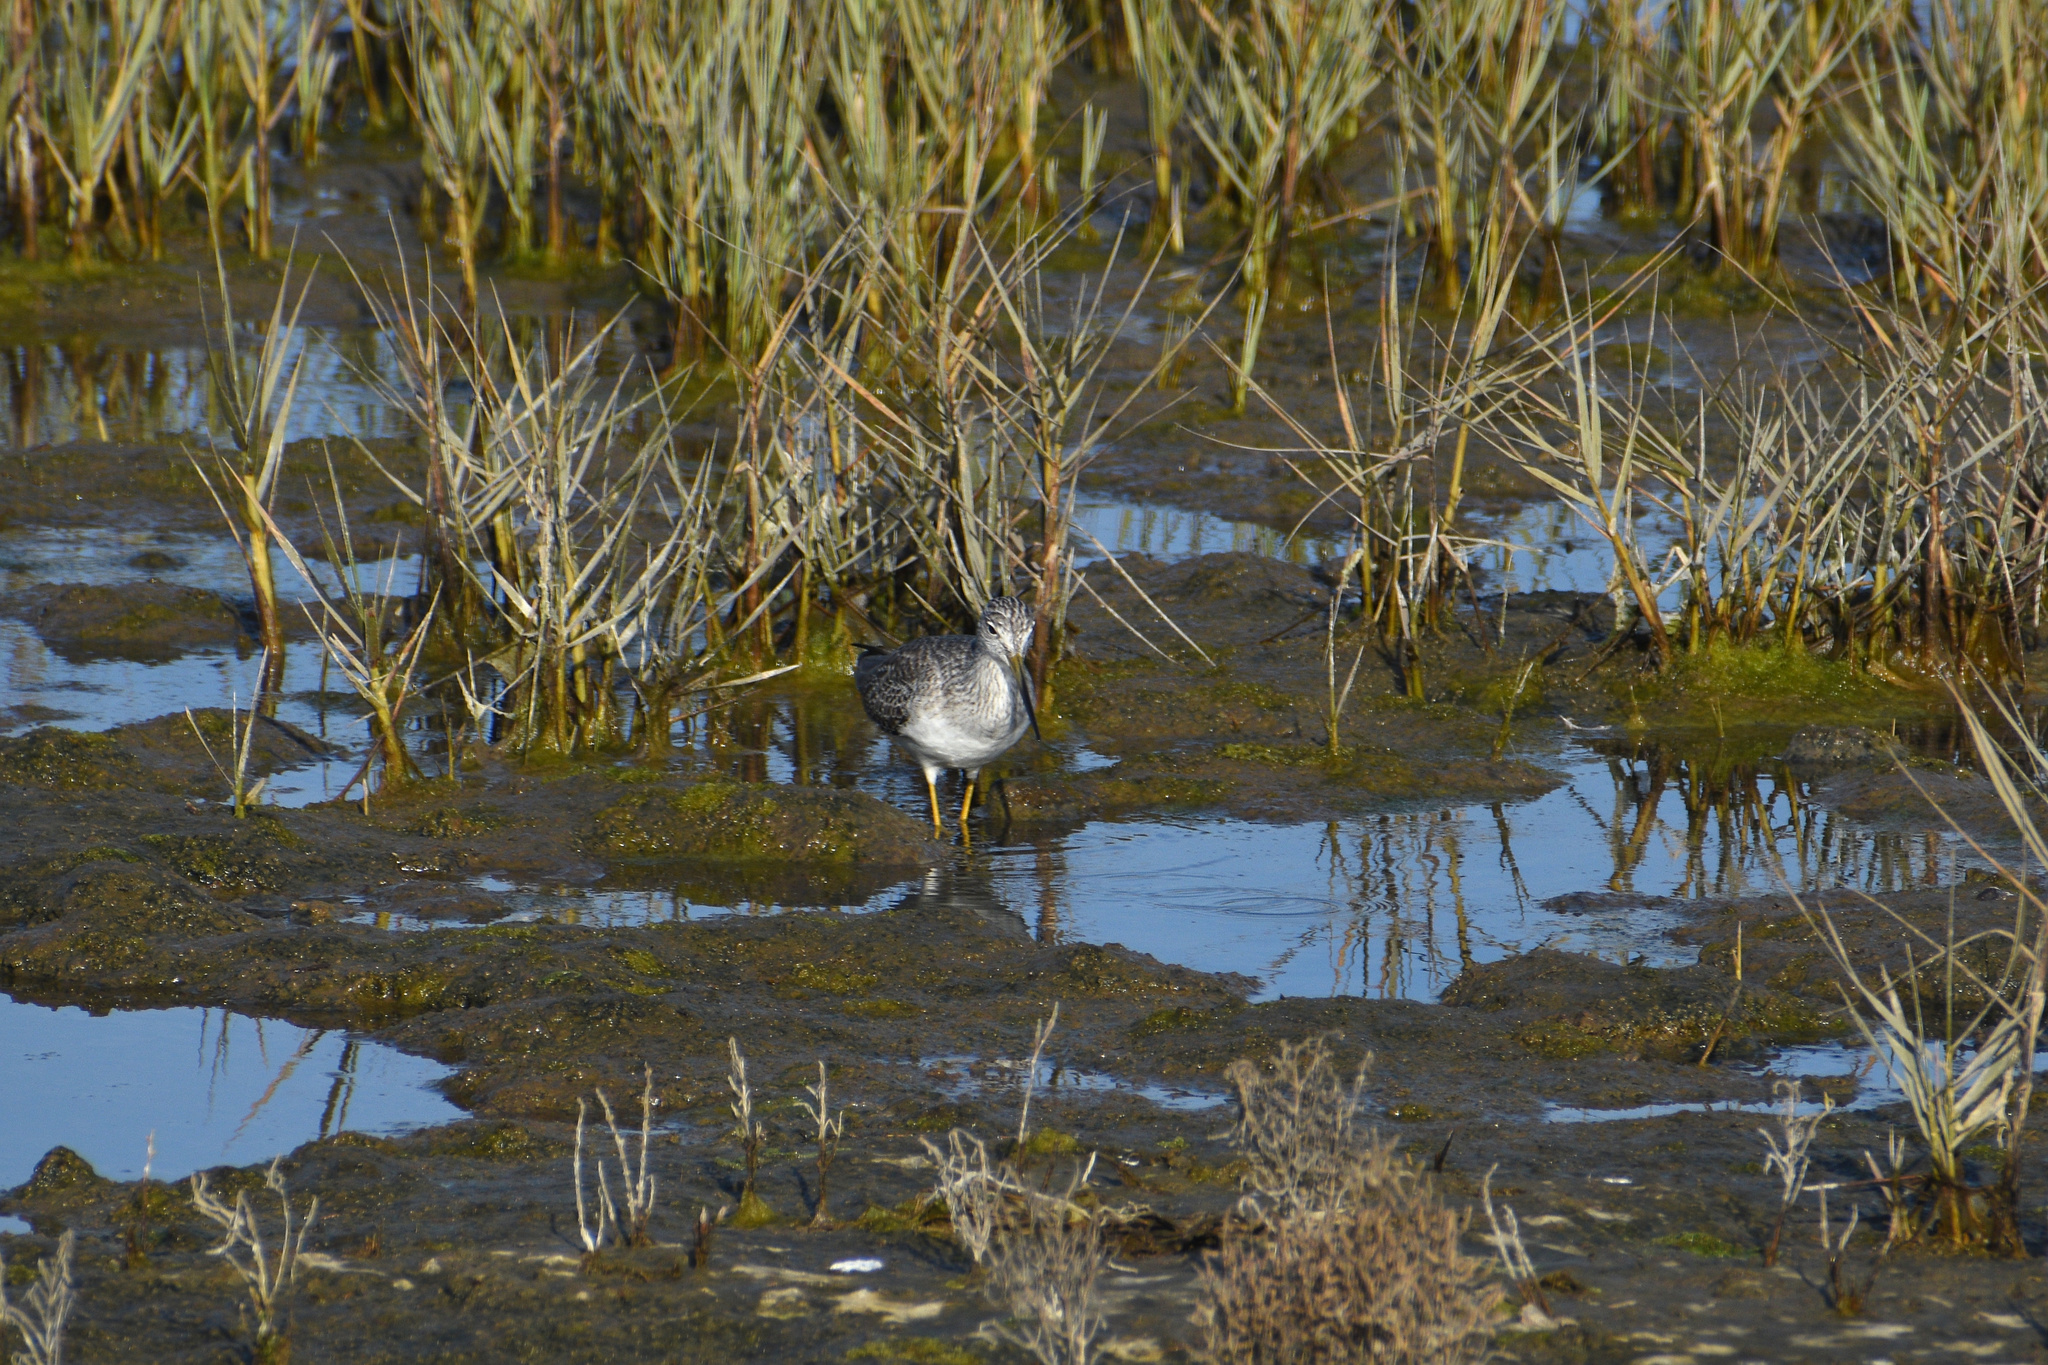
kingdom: Animalia
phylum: Chordata
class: Aves
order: Charadriiformes
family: Scolopacidae
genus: Tringa
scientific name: Tringa melanoleuca
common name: Greater yellowlegs
